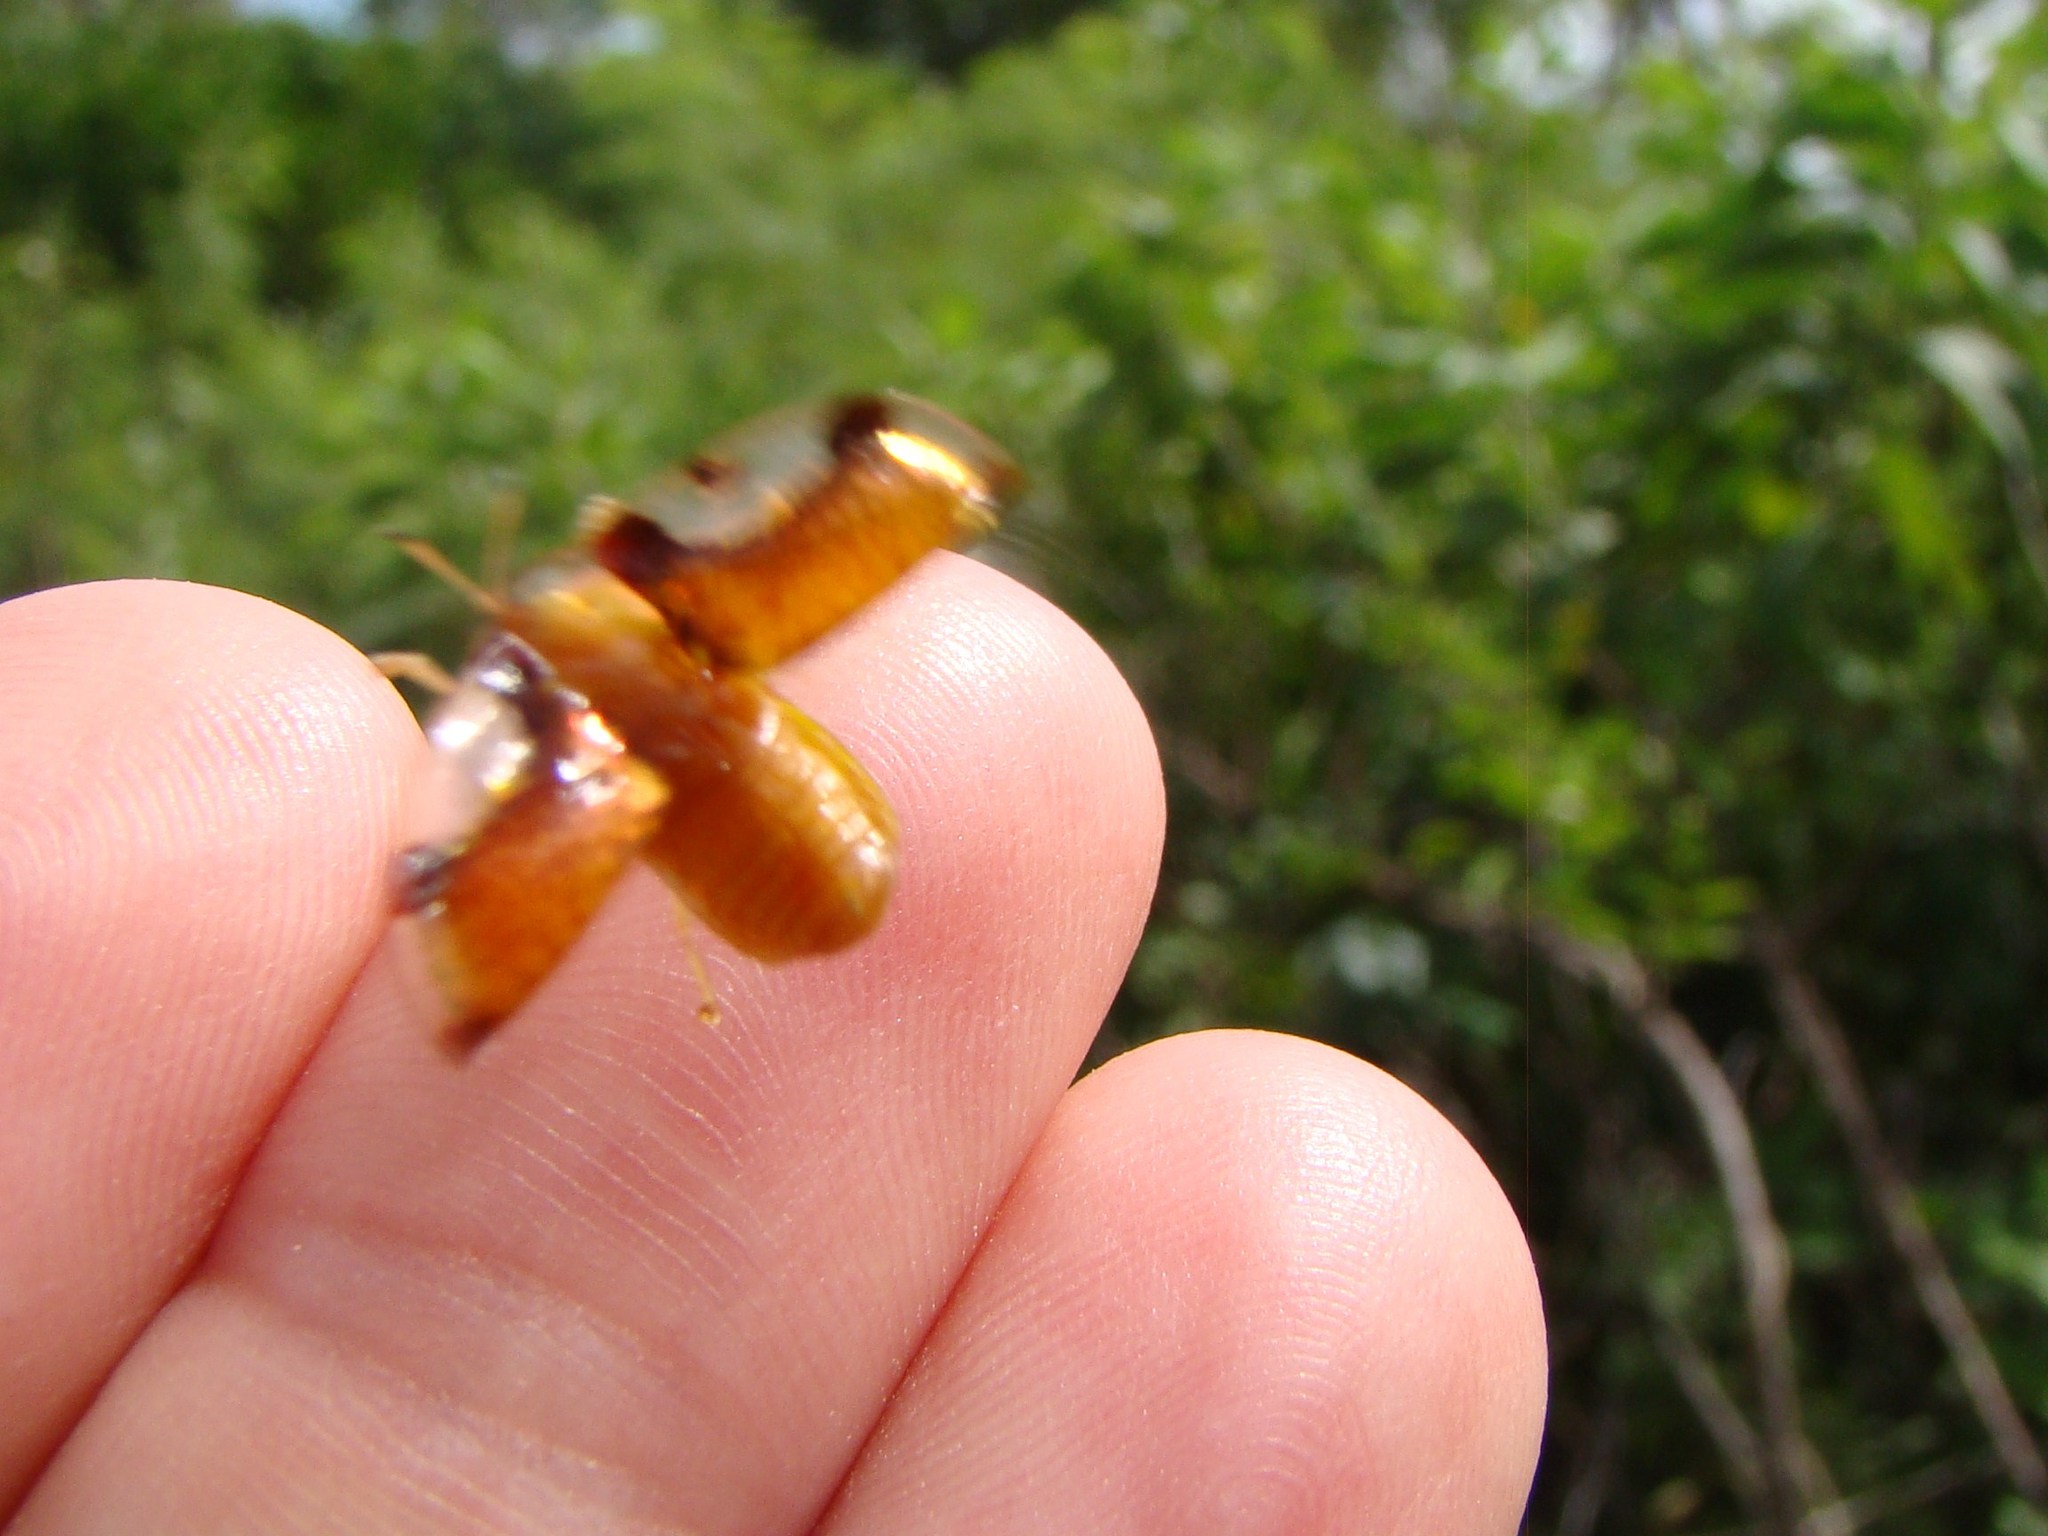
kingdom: Animalia
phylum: Arthropoda
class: Insecta
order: Coleoptera
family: Chrysomelidae
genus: Aspidimorpha
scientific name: Aspidimorpha quinquefasciata
